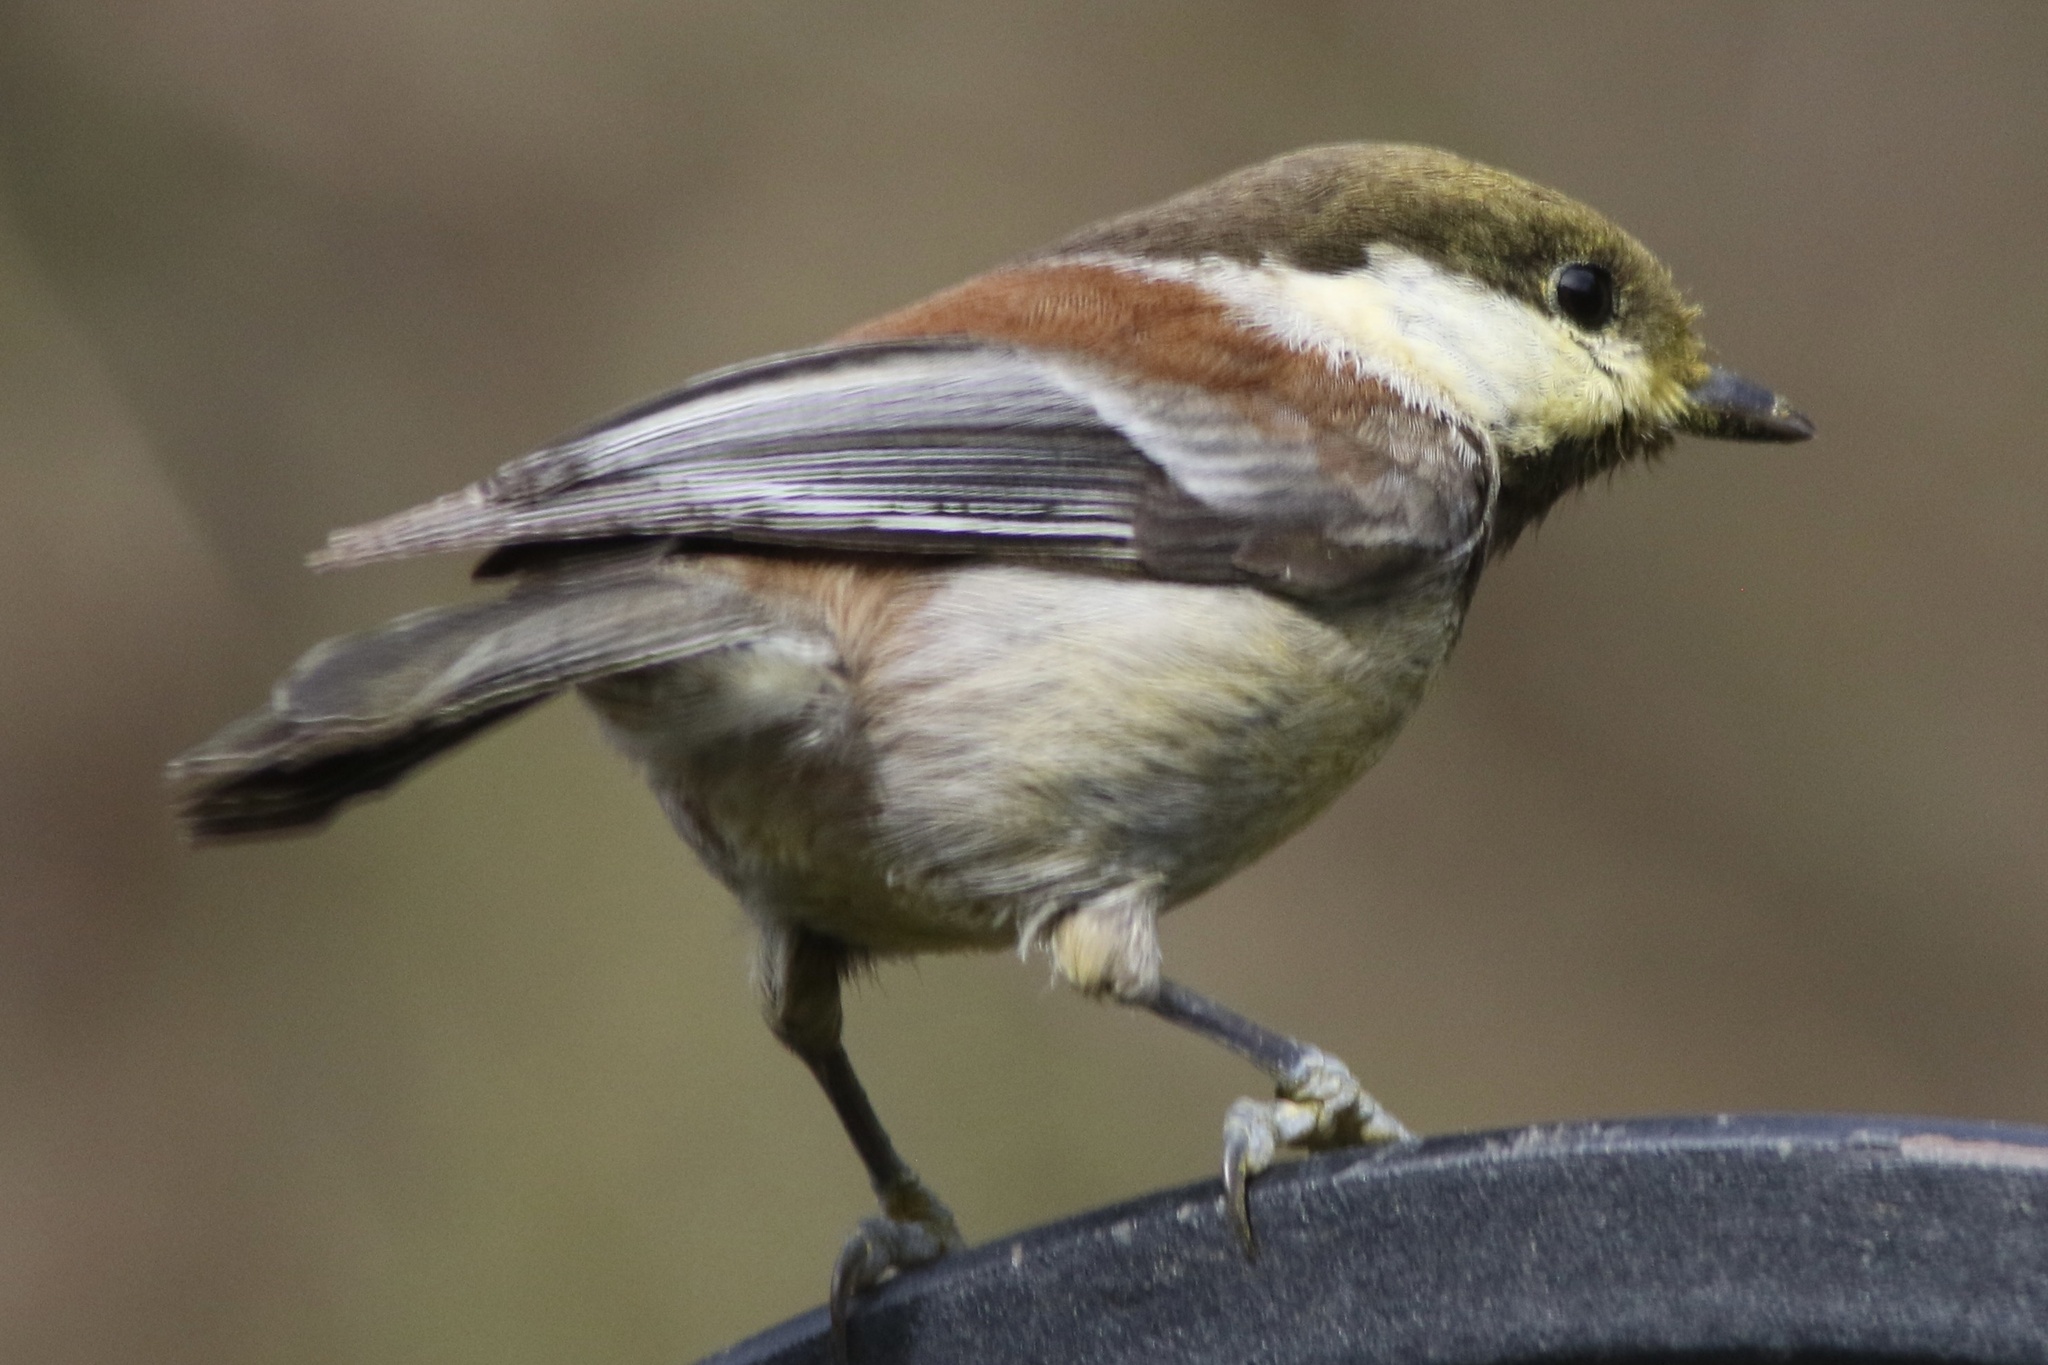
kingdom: Animalia
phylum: Chordata
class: Aves
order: Passeriformes
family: Paridae
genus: Poecile
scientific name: Poecile rufescens
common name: Chestnut-backed chickadee
